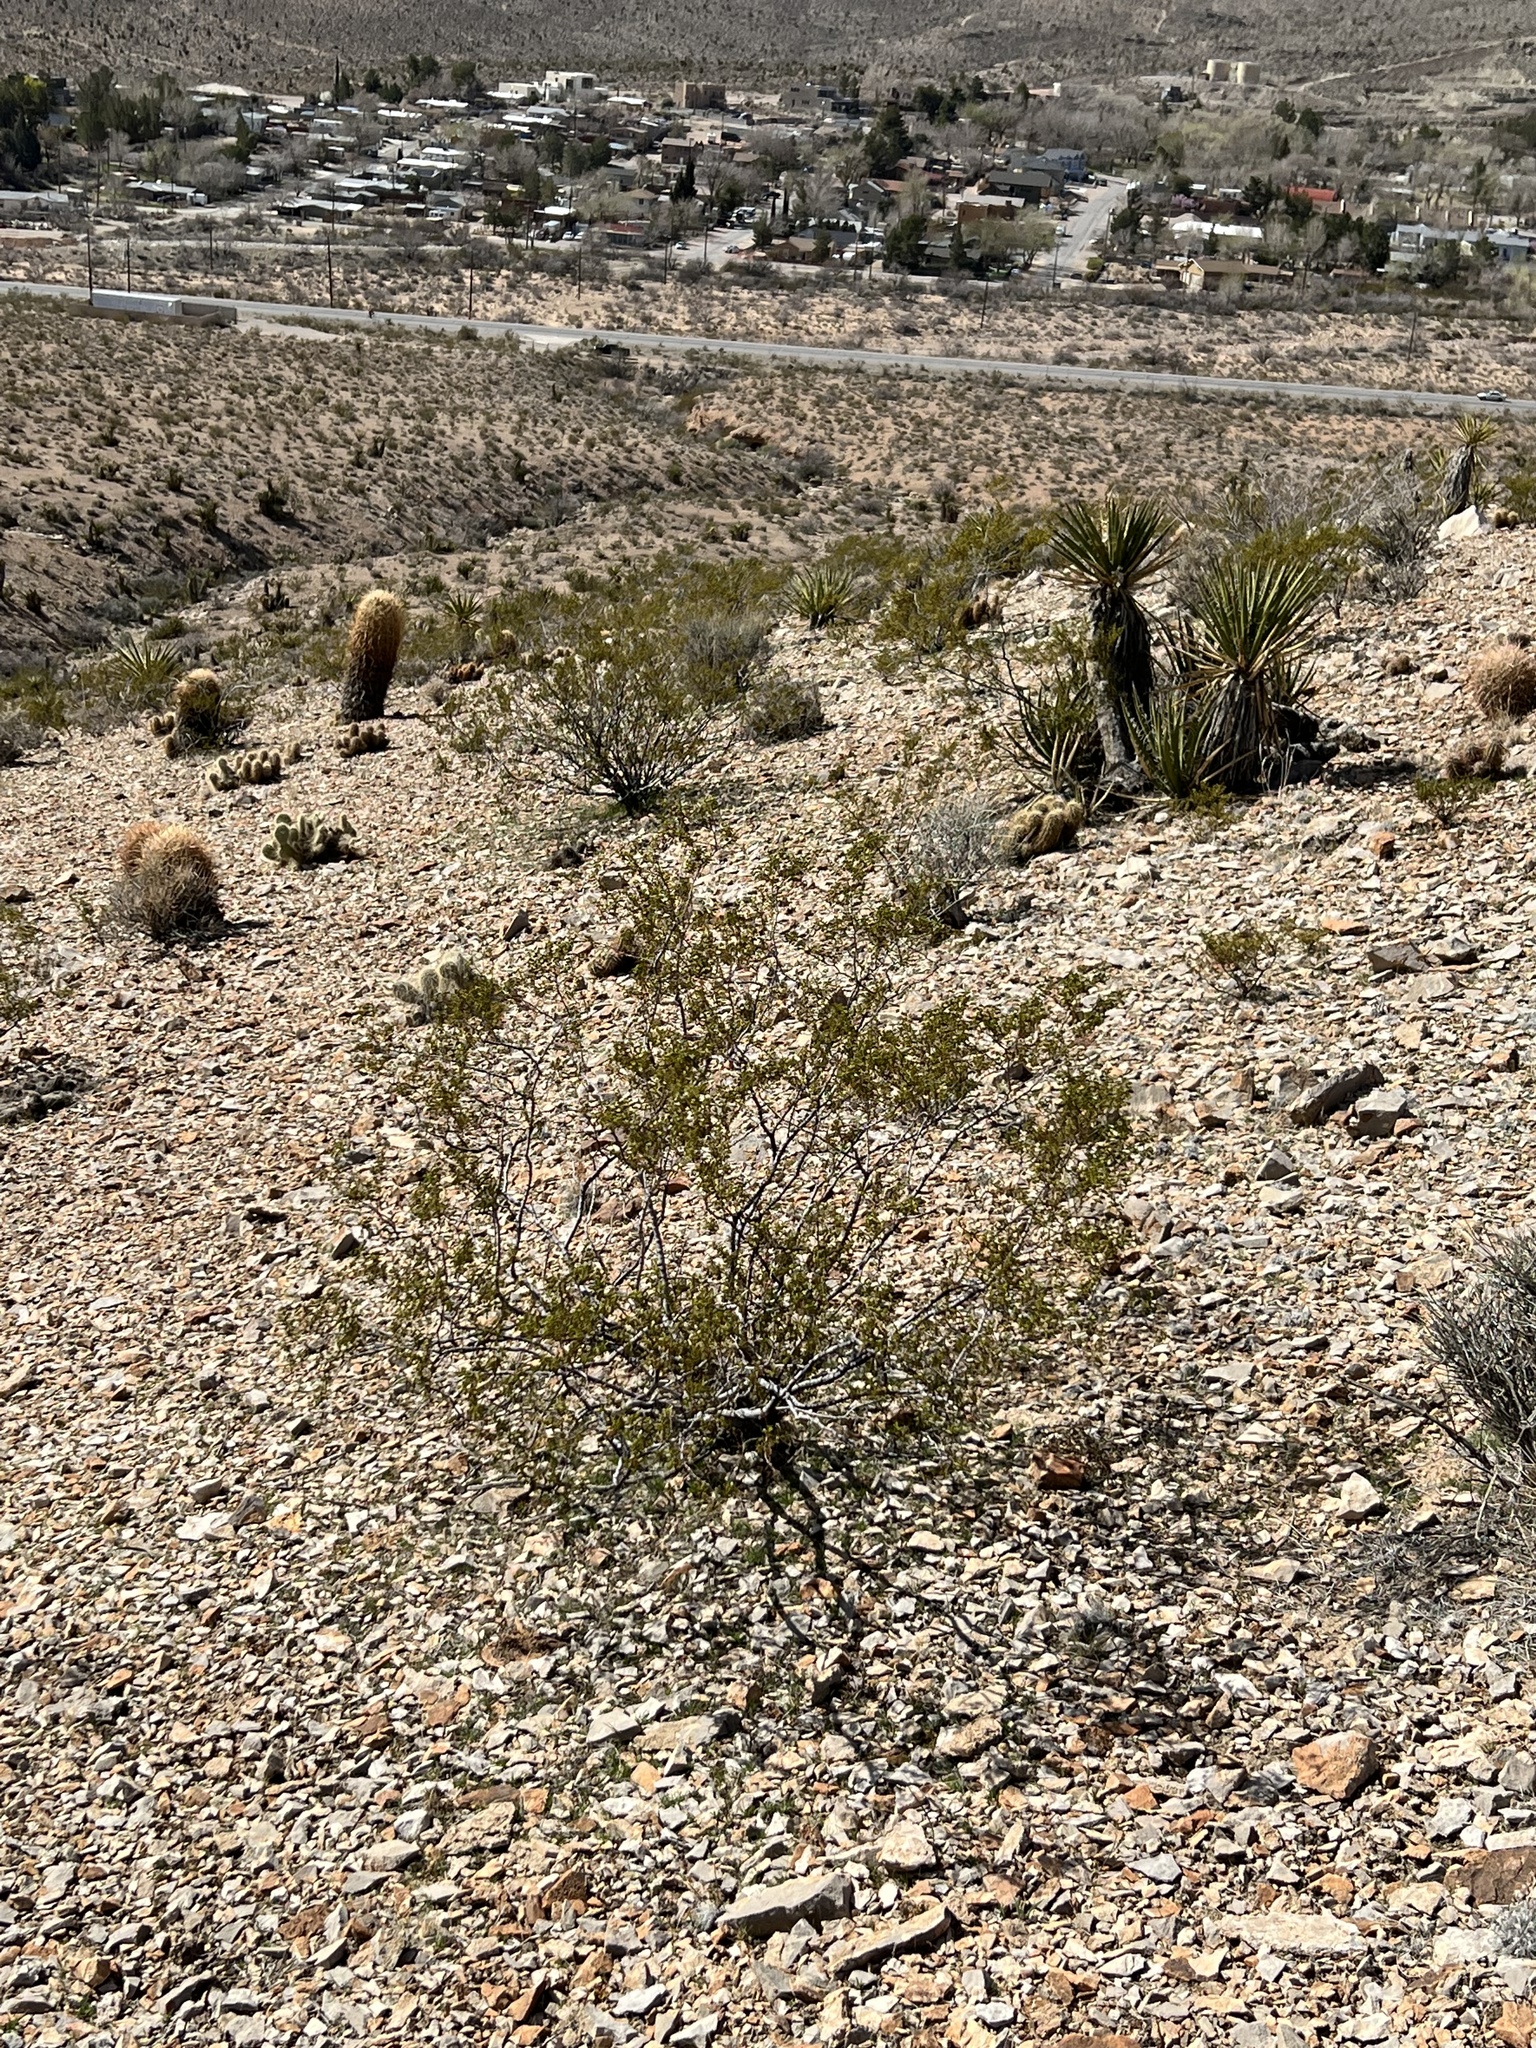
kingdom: Plantae
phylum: Tracheophyta
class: Magnoliopsida
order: Zygophyllales
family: Zygophyllaceae
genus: Larrea
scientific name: Larrea tridentata
